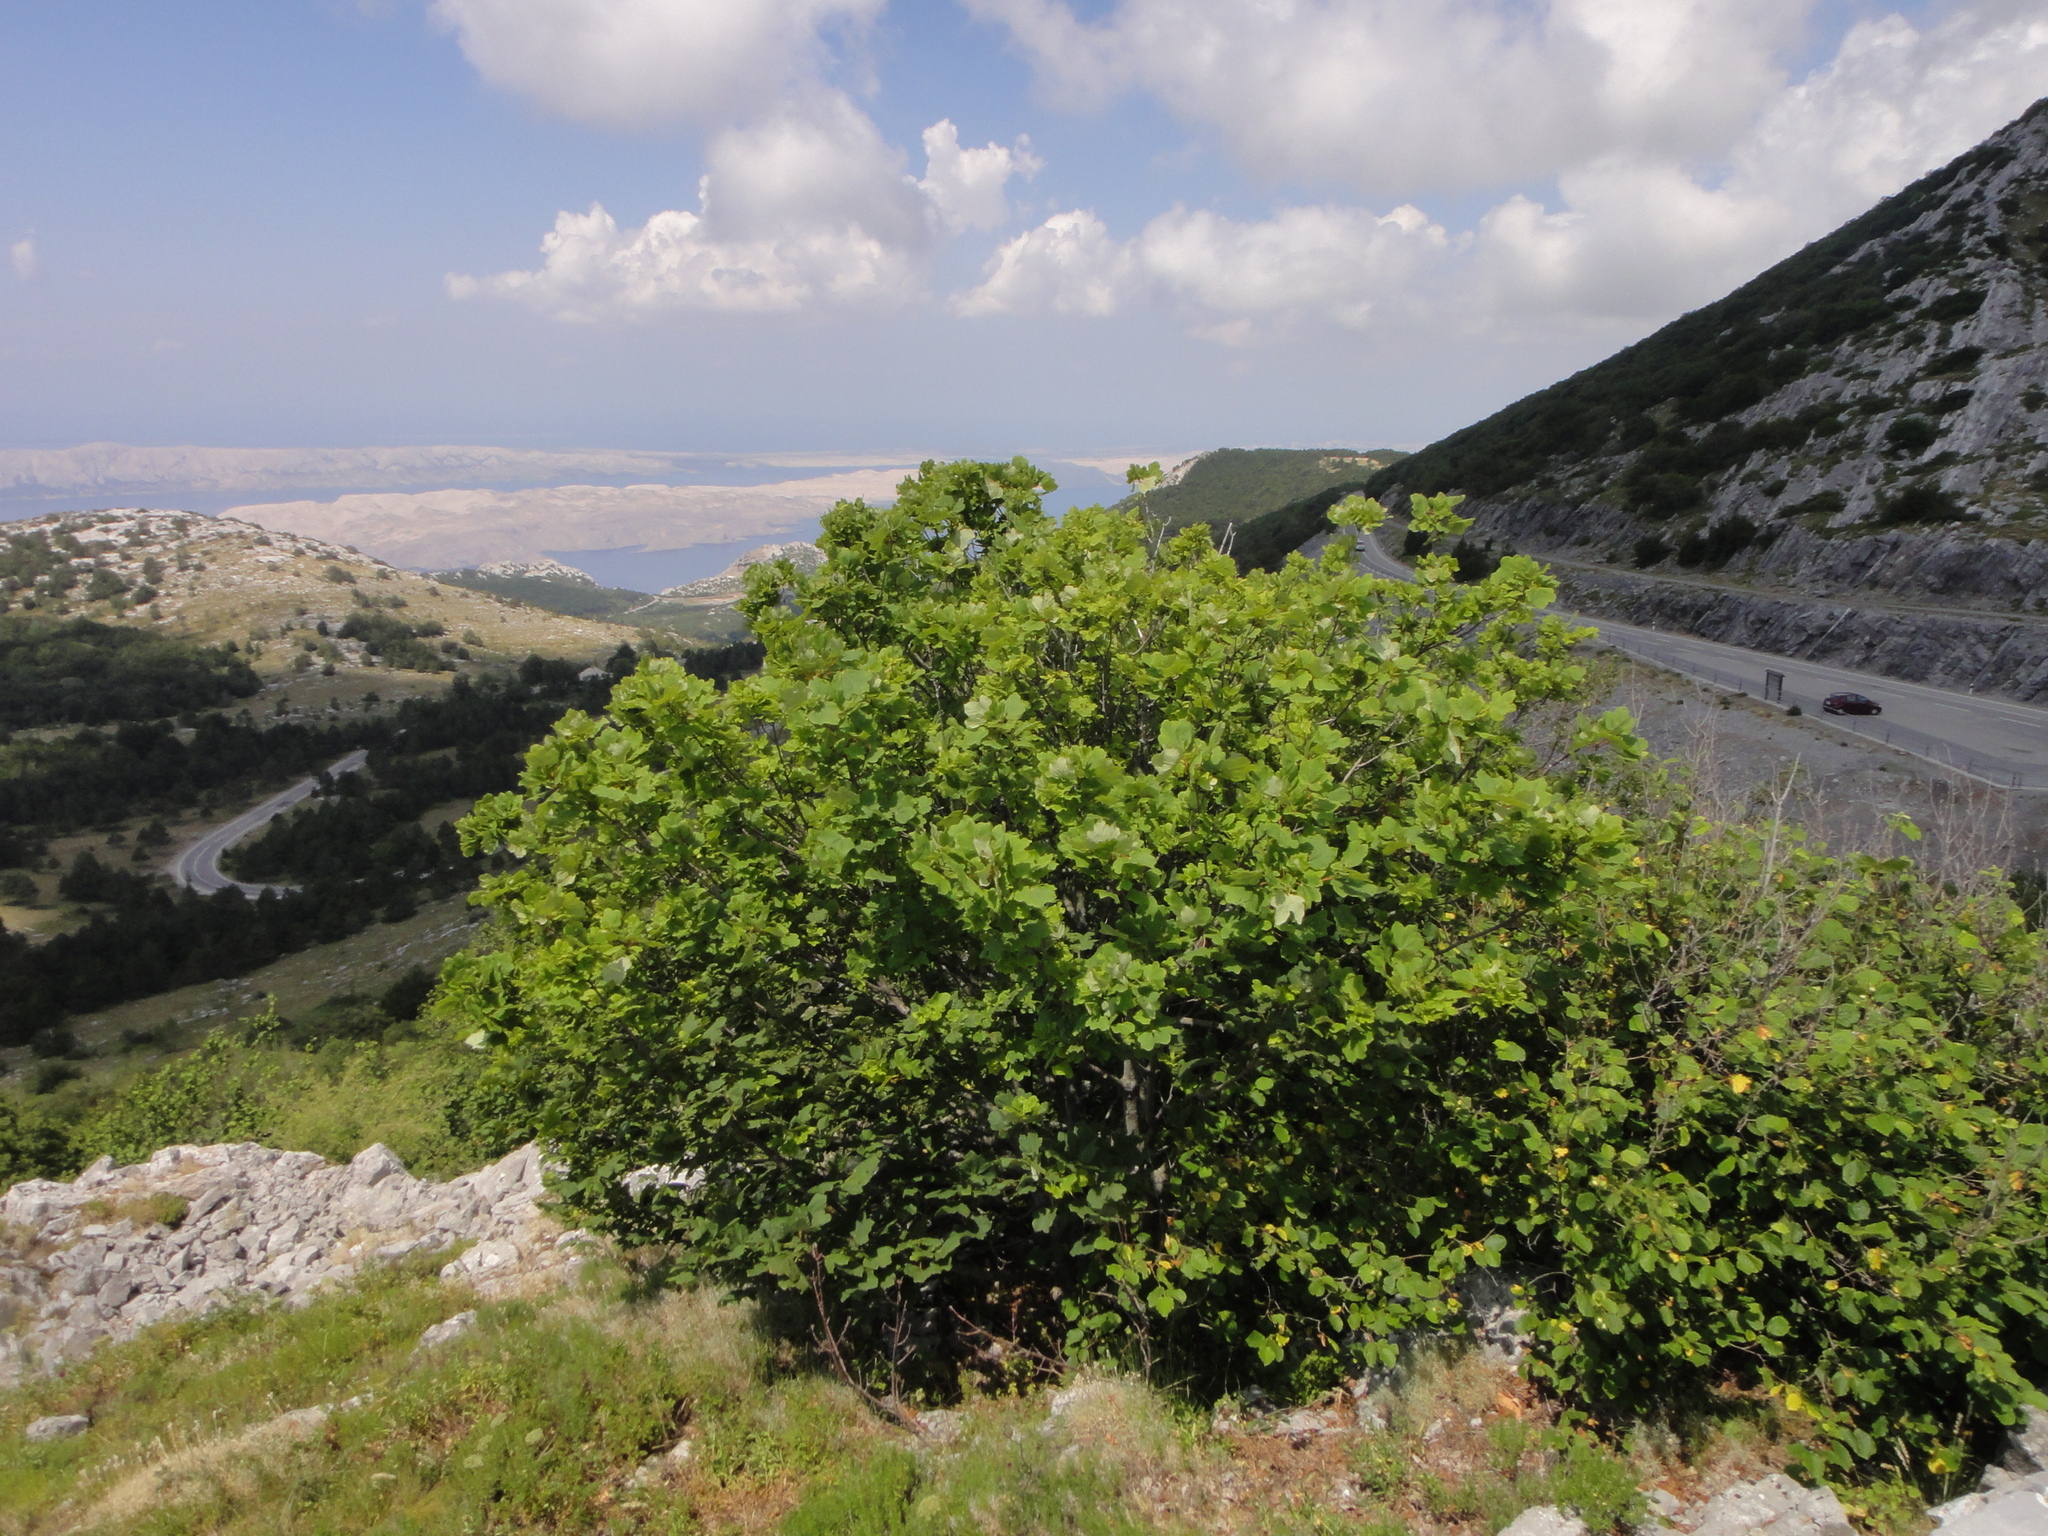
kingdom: Plantae
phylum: Tracheophyta
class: Magnoliopsida
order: Sapindales
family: Sapindaceae
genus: Acer
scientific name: Acer obtusatum
